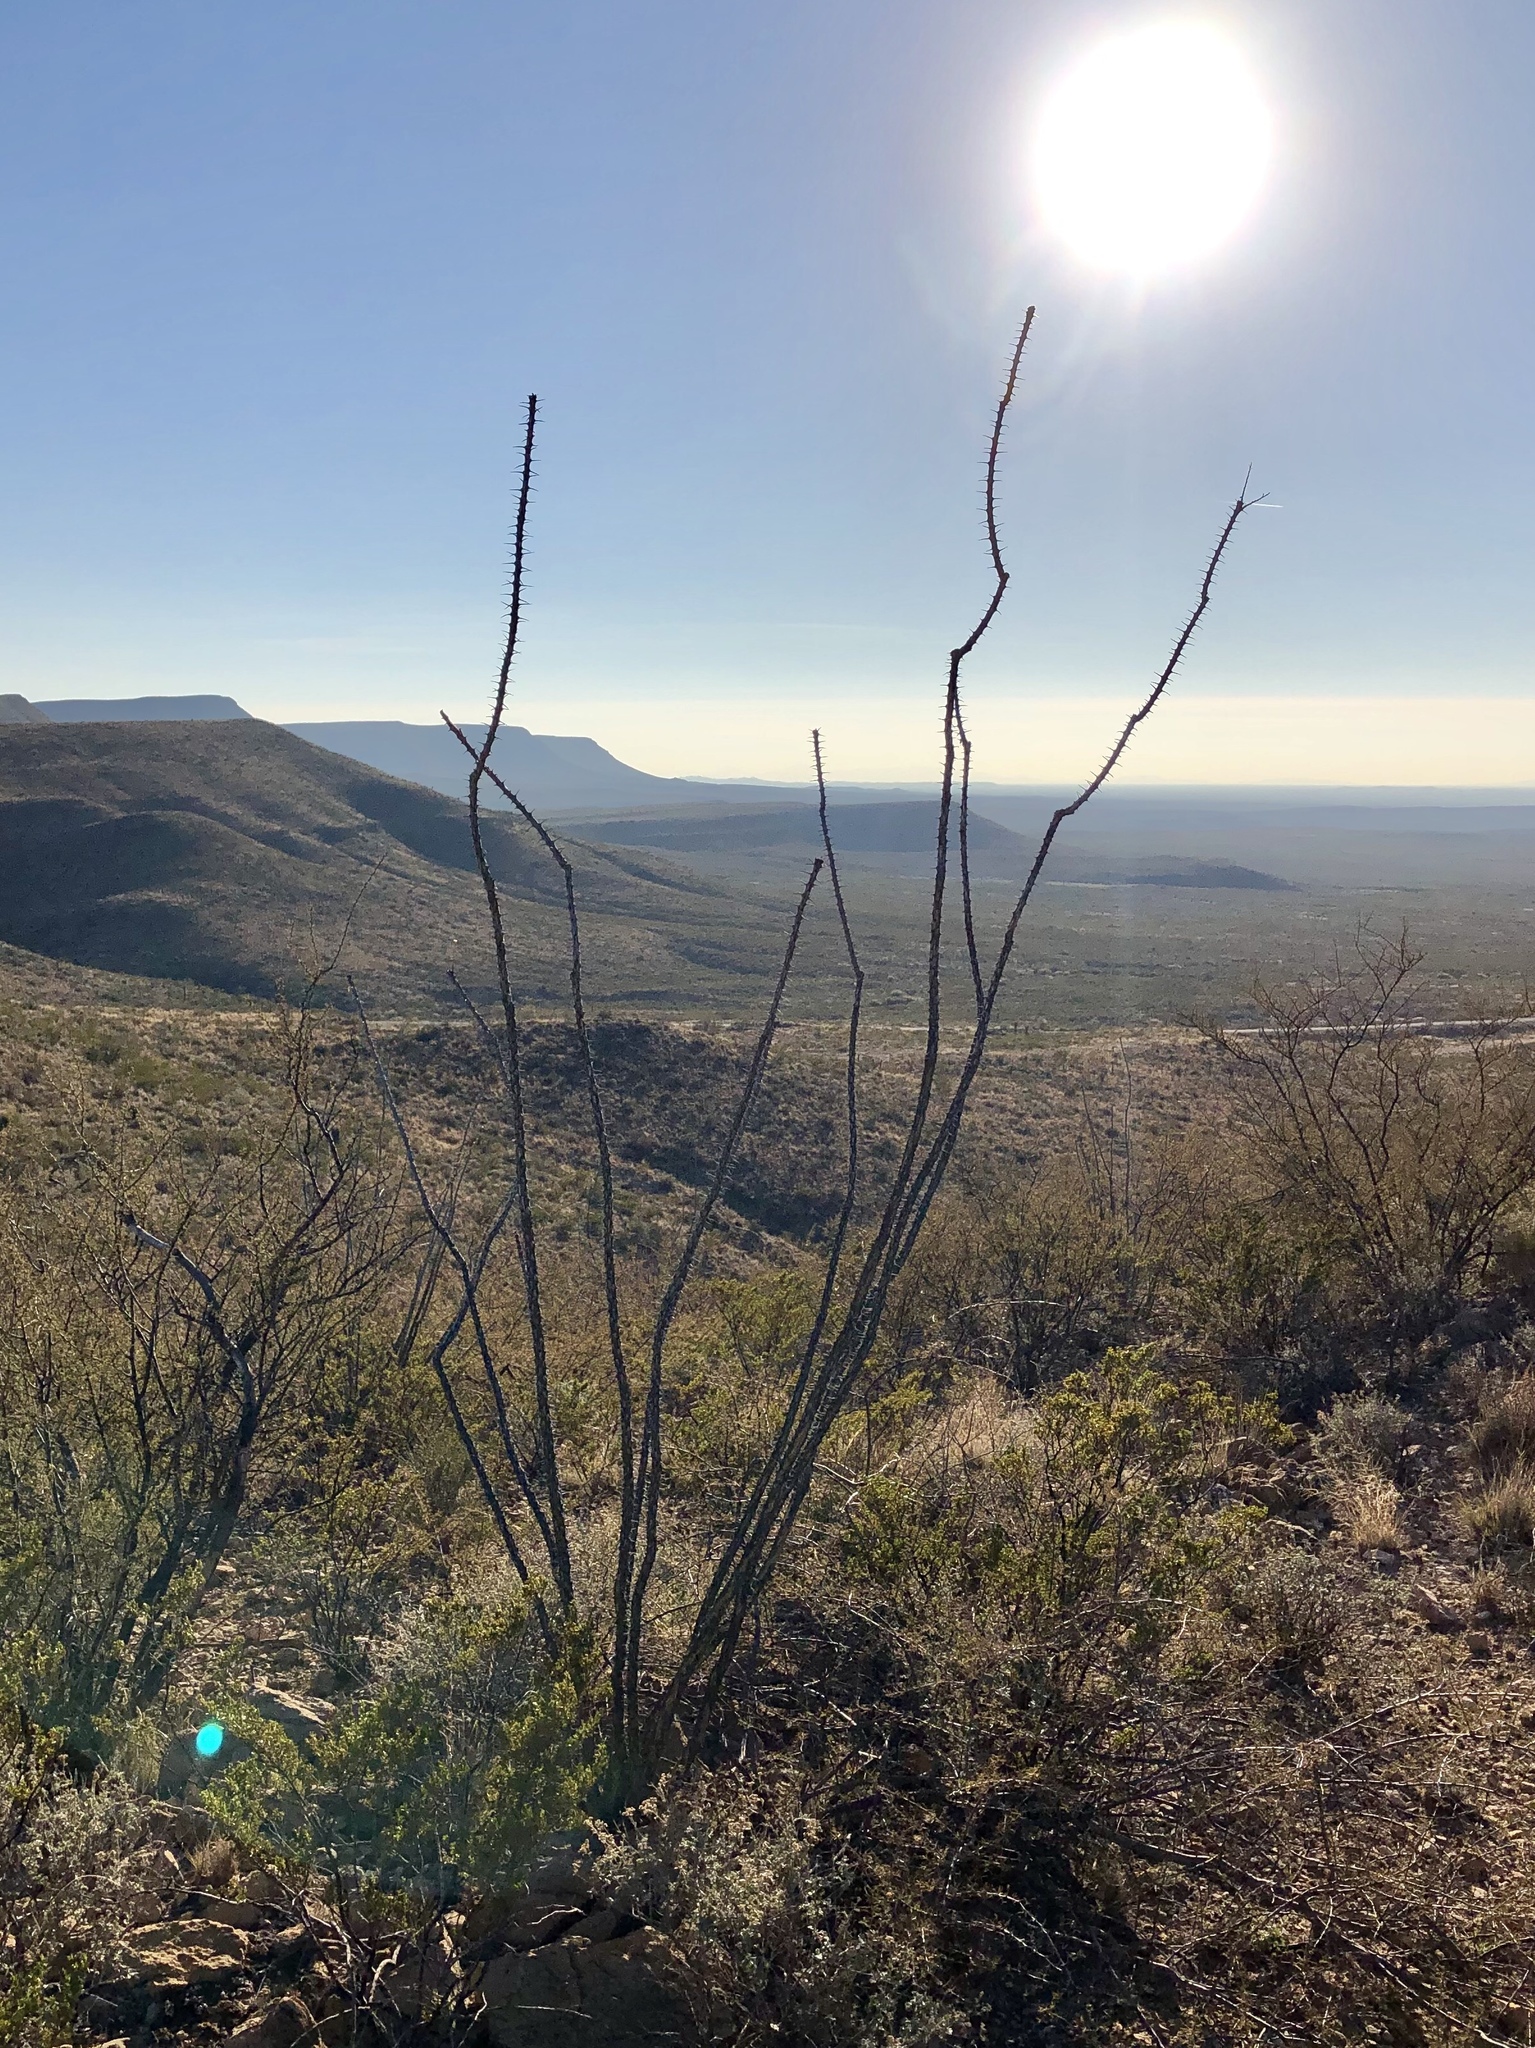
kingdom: Plantae
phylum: Tracheophyta
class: Magnoliopsida
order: Ericales
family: Fouquieriaceae
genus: Fouquieria
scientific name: Fouquieria splendens
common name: Vine-cactus
